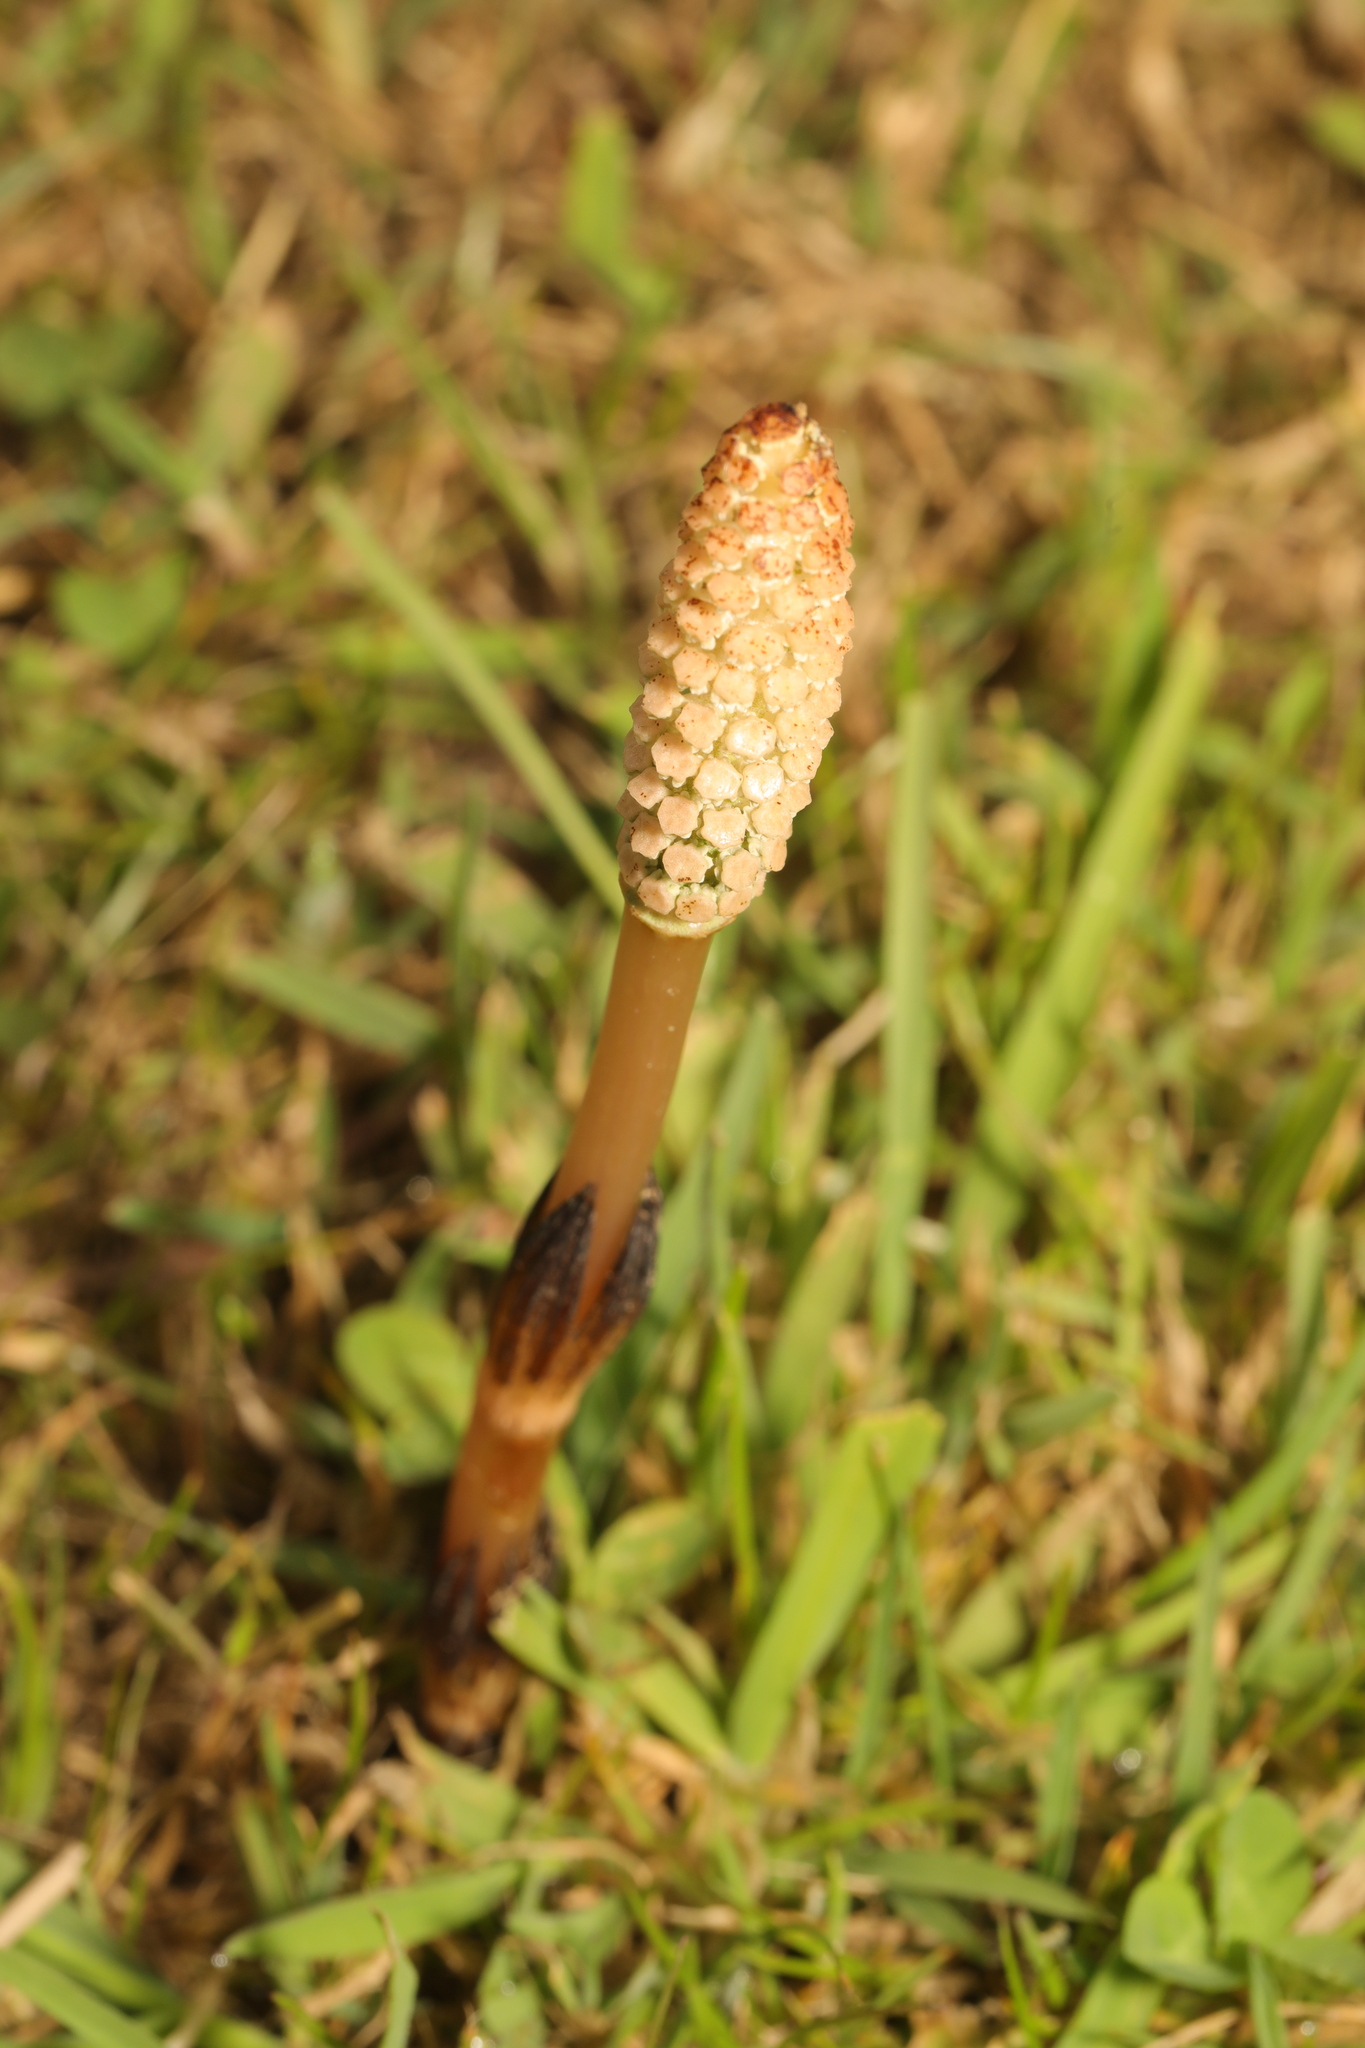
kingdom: Plantae
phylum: Tracheophyta
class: Polypodiopsida
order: Equisetales
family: Equisetaceae
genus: Equisetum
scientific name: Equisetum arvense
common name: Field horsetail
